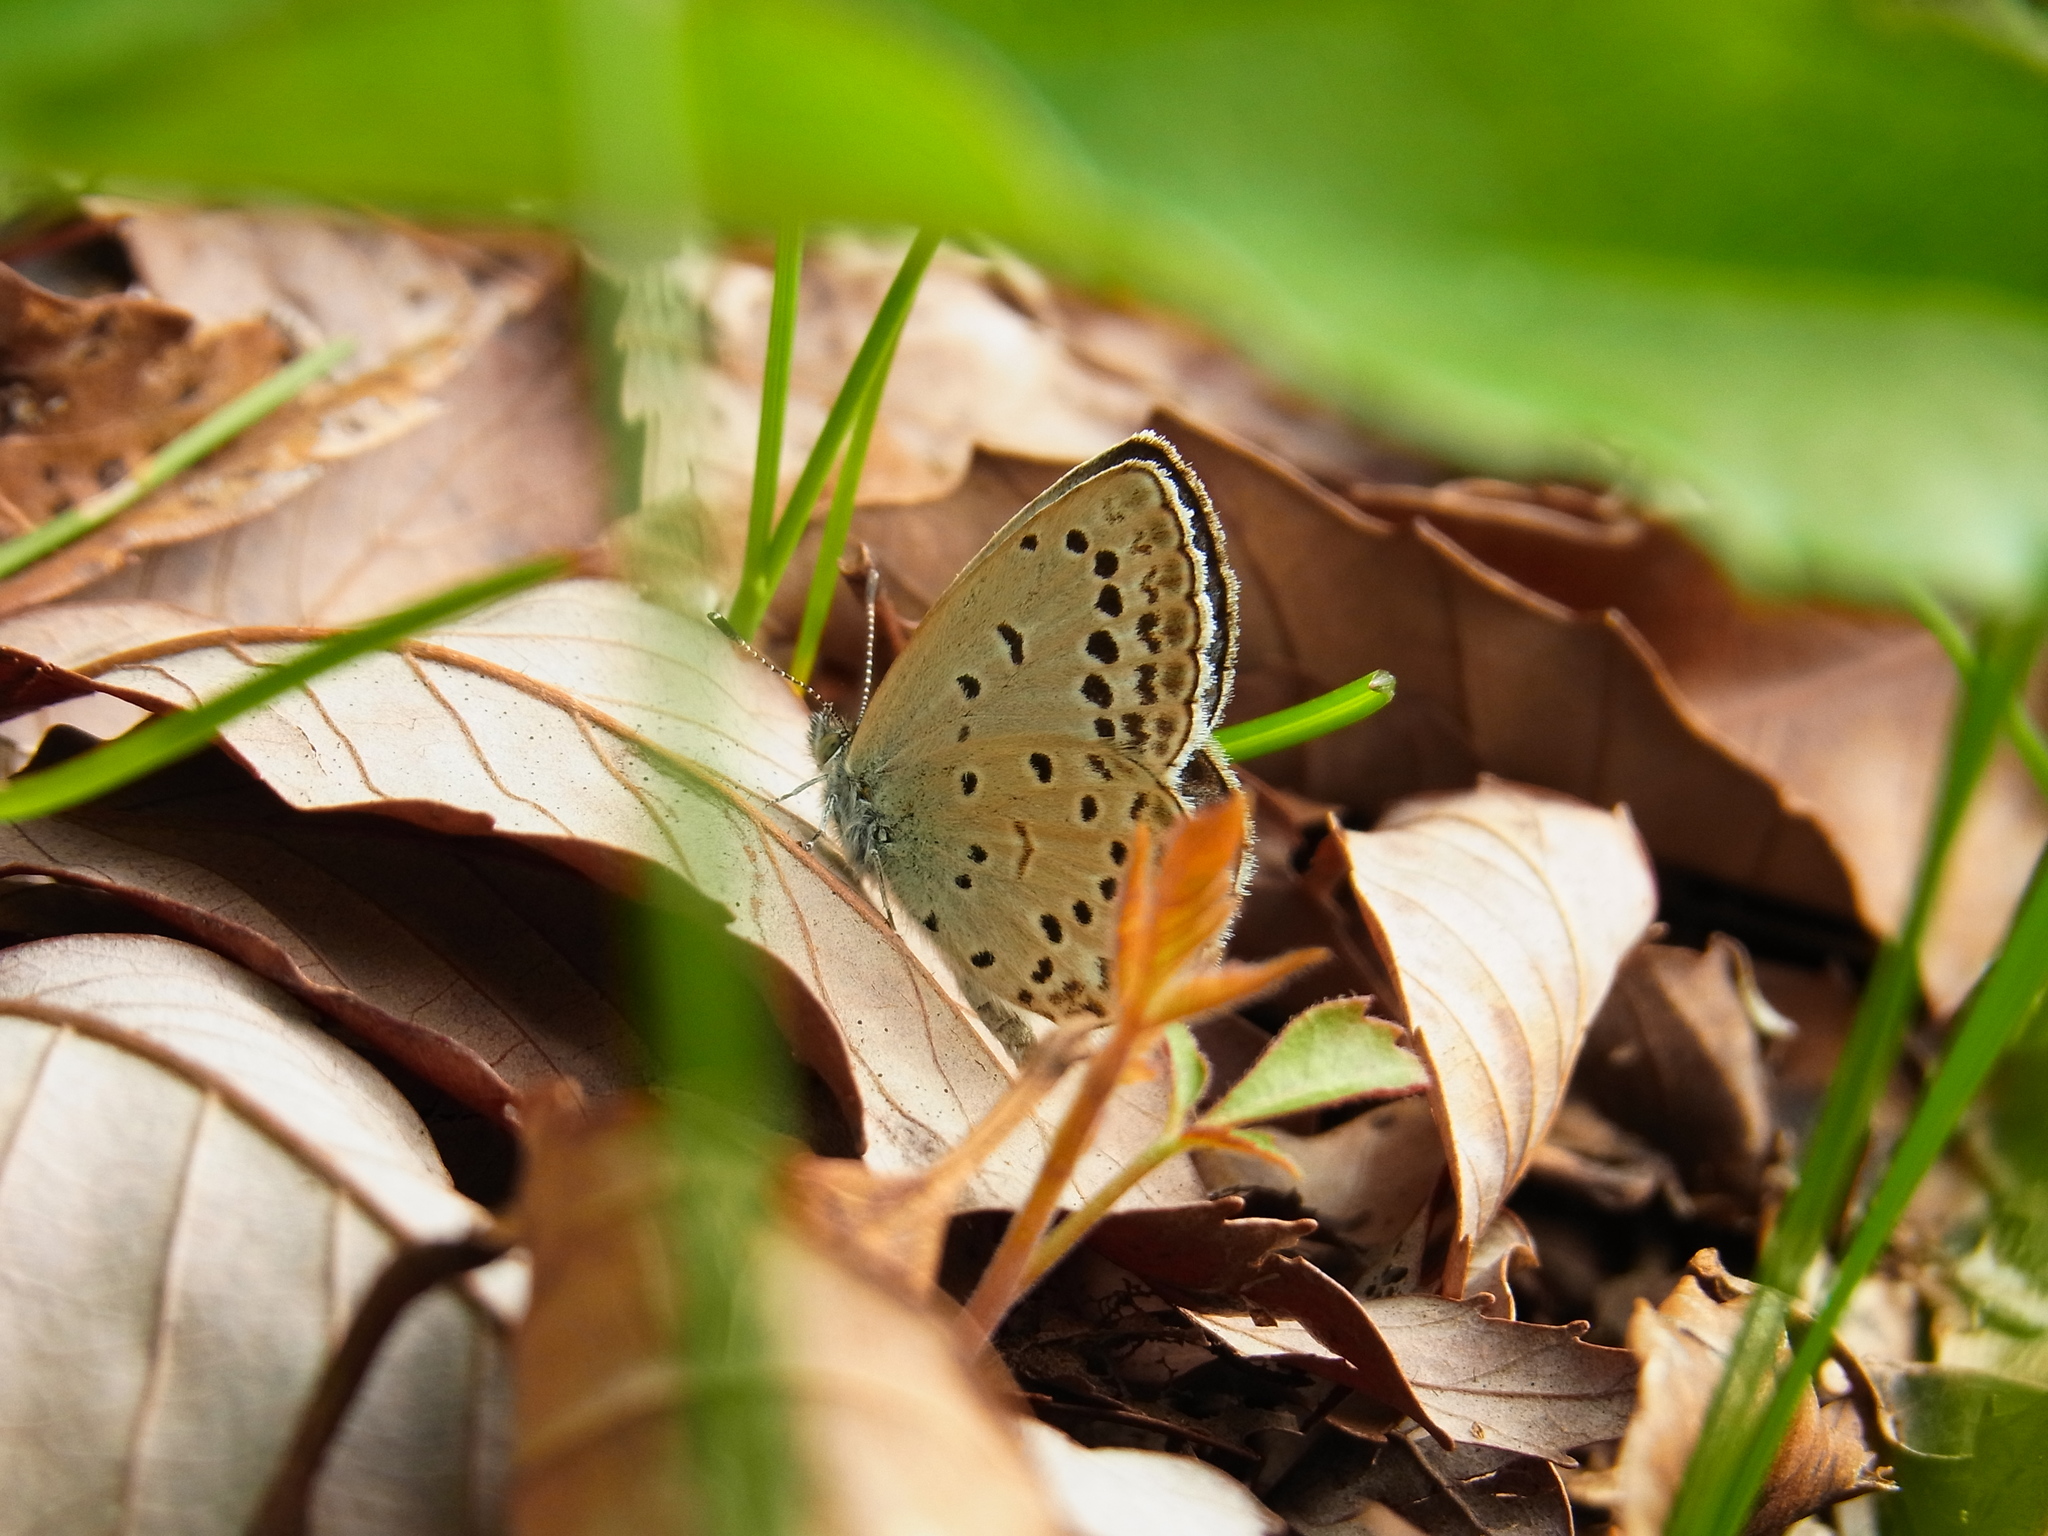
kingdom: Animalia
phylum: Arthropoda
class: Insecta
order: Lepidoptera
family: Lycaenidae
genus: Pseudozizeeria
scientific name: Pseudozizeeria maha
